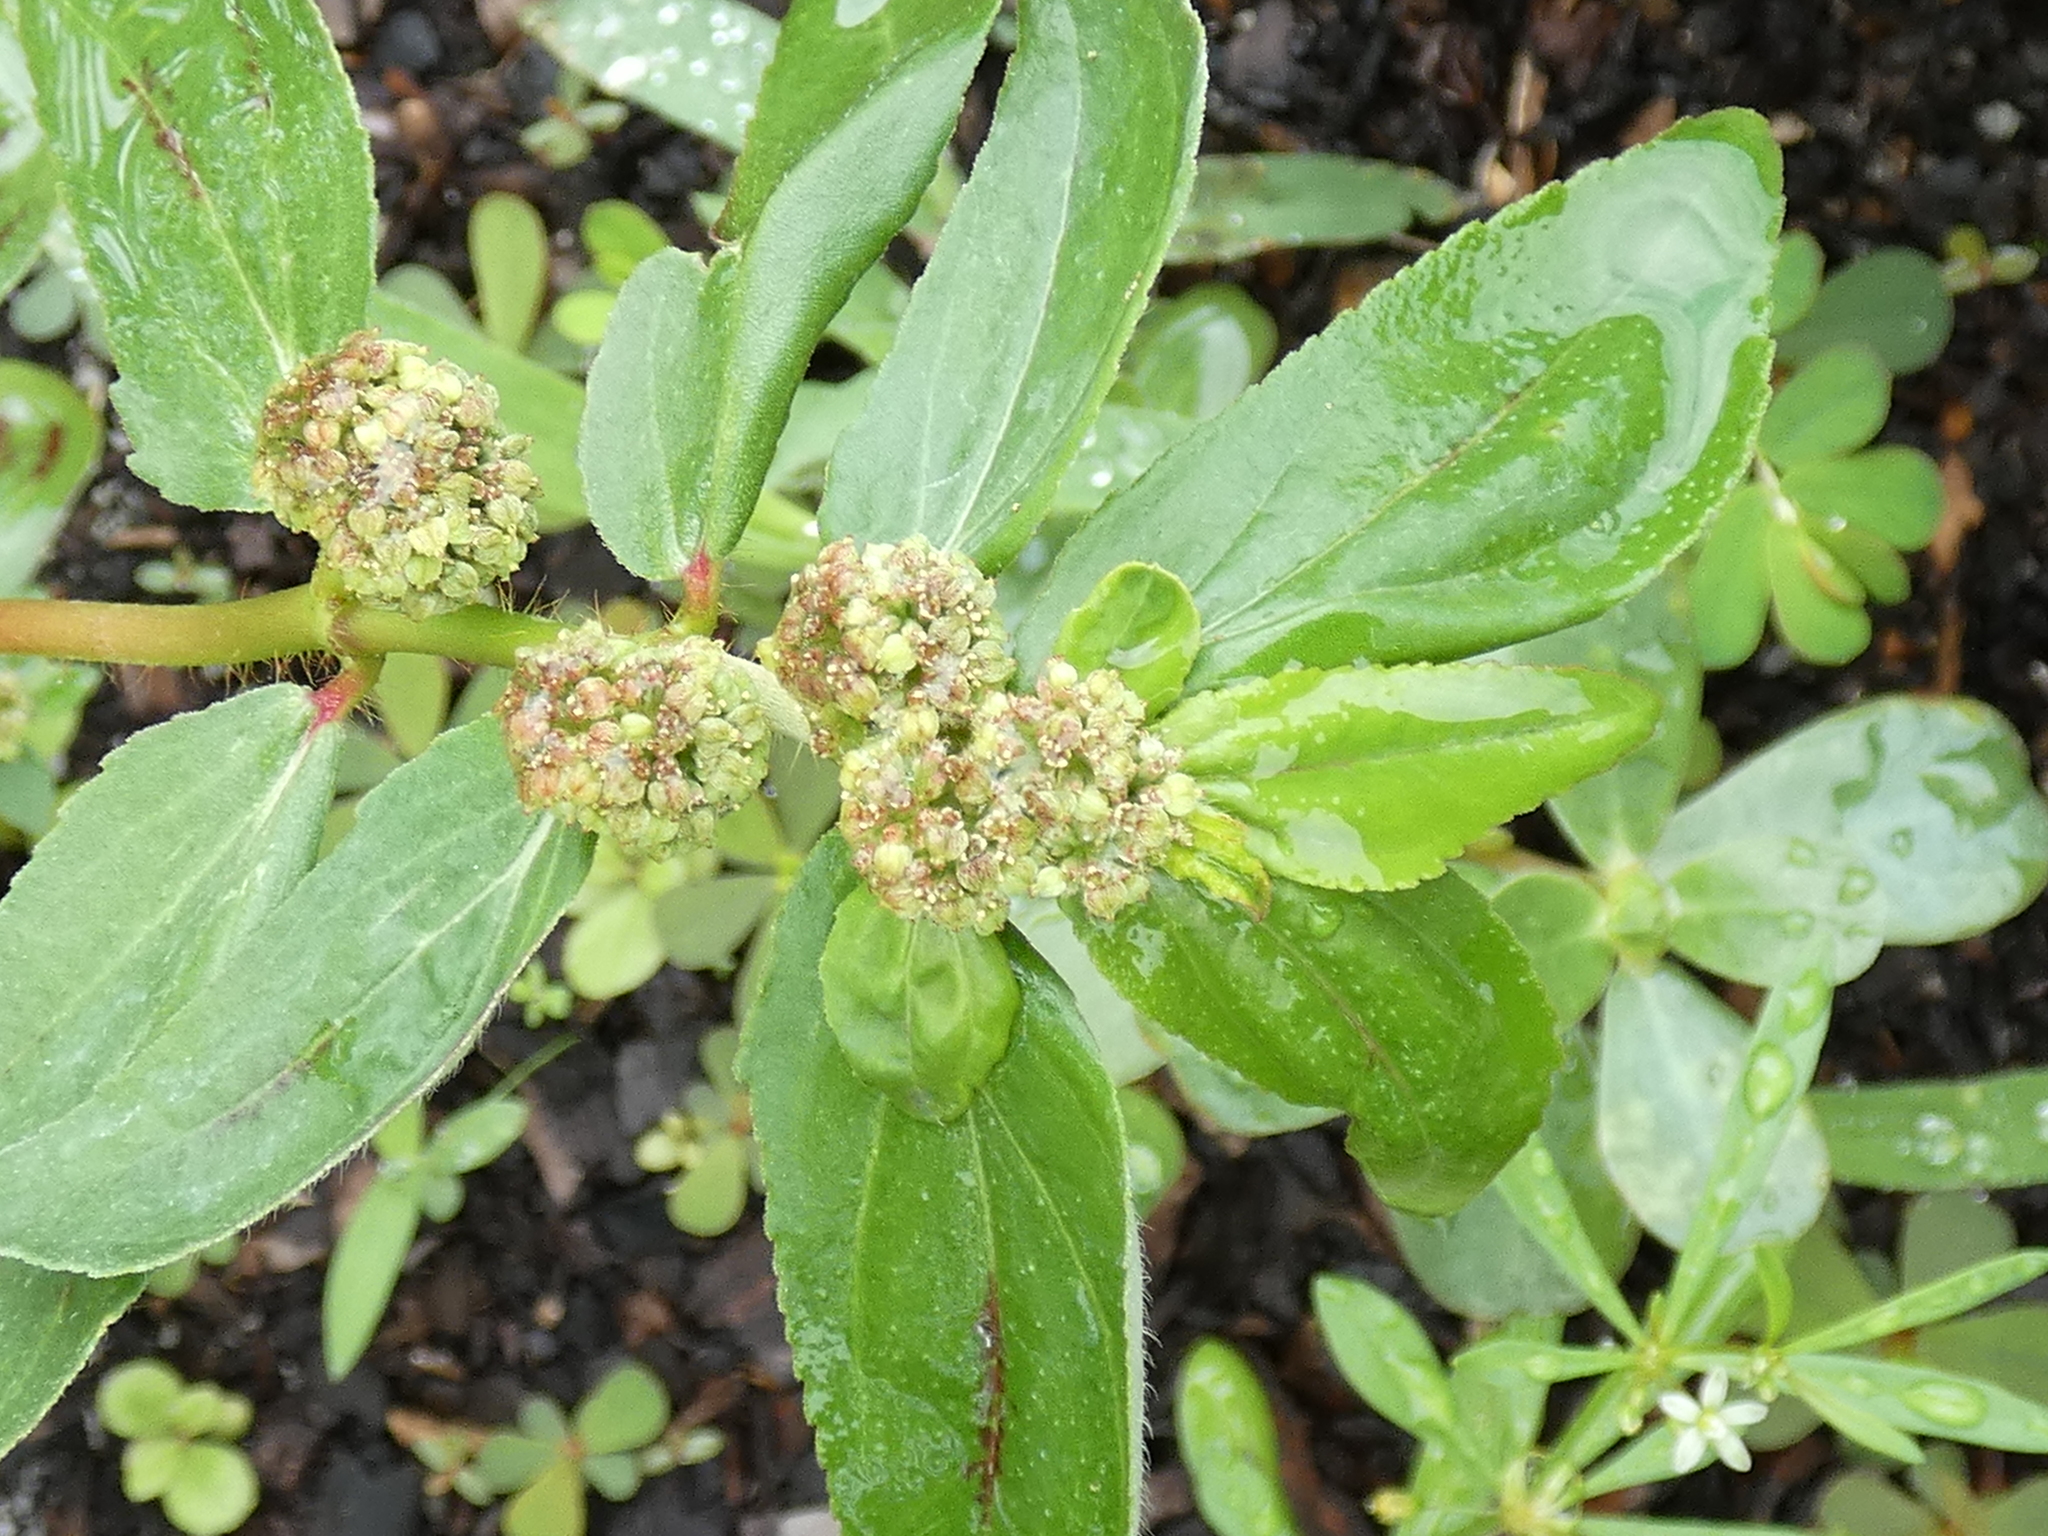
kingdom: Plantae
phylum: Tracheophyta
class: Magnoliopsida
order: Malpighiales
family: Euphorbiaceae
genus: Euphorbia
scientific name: Euphorbia hirta
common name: Pillpod sandmat
